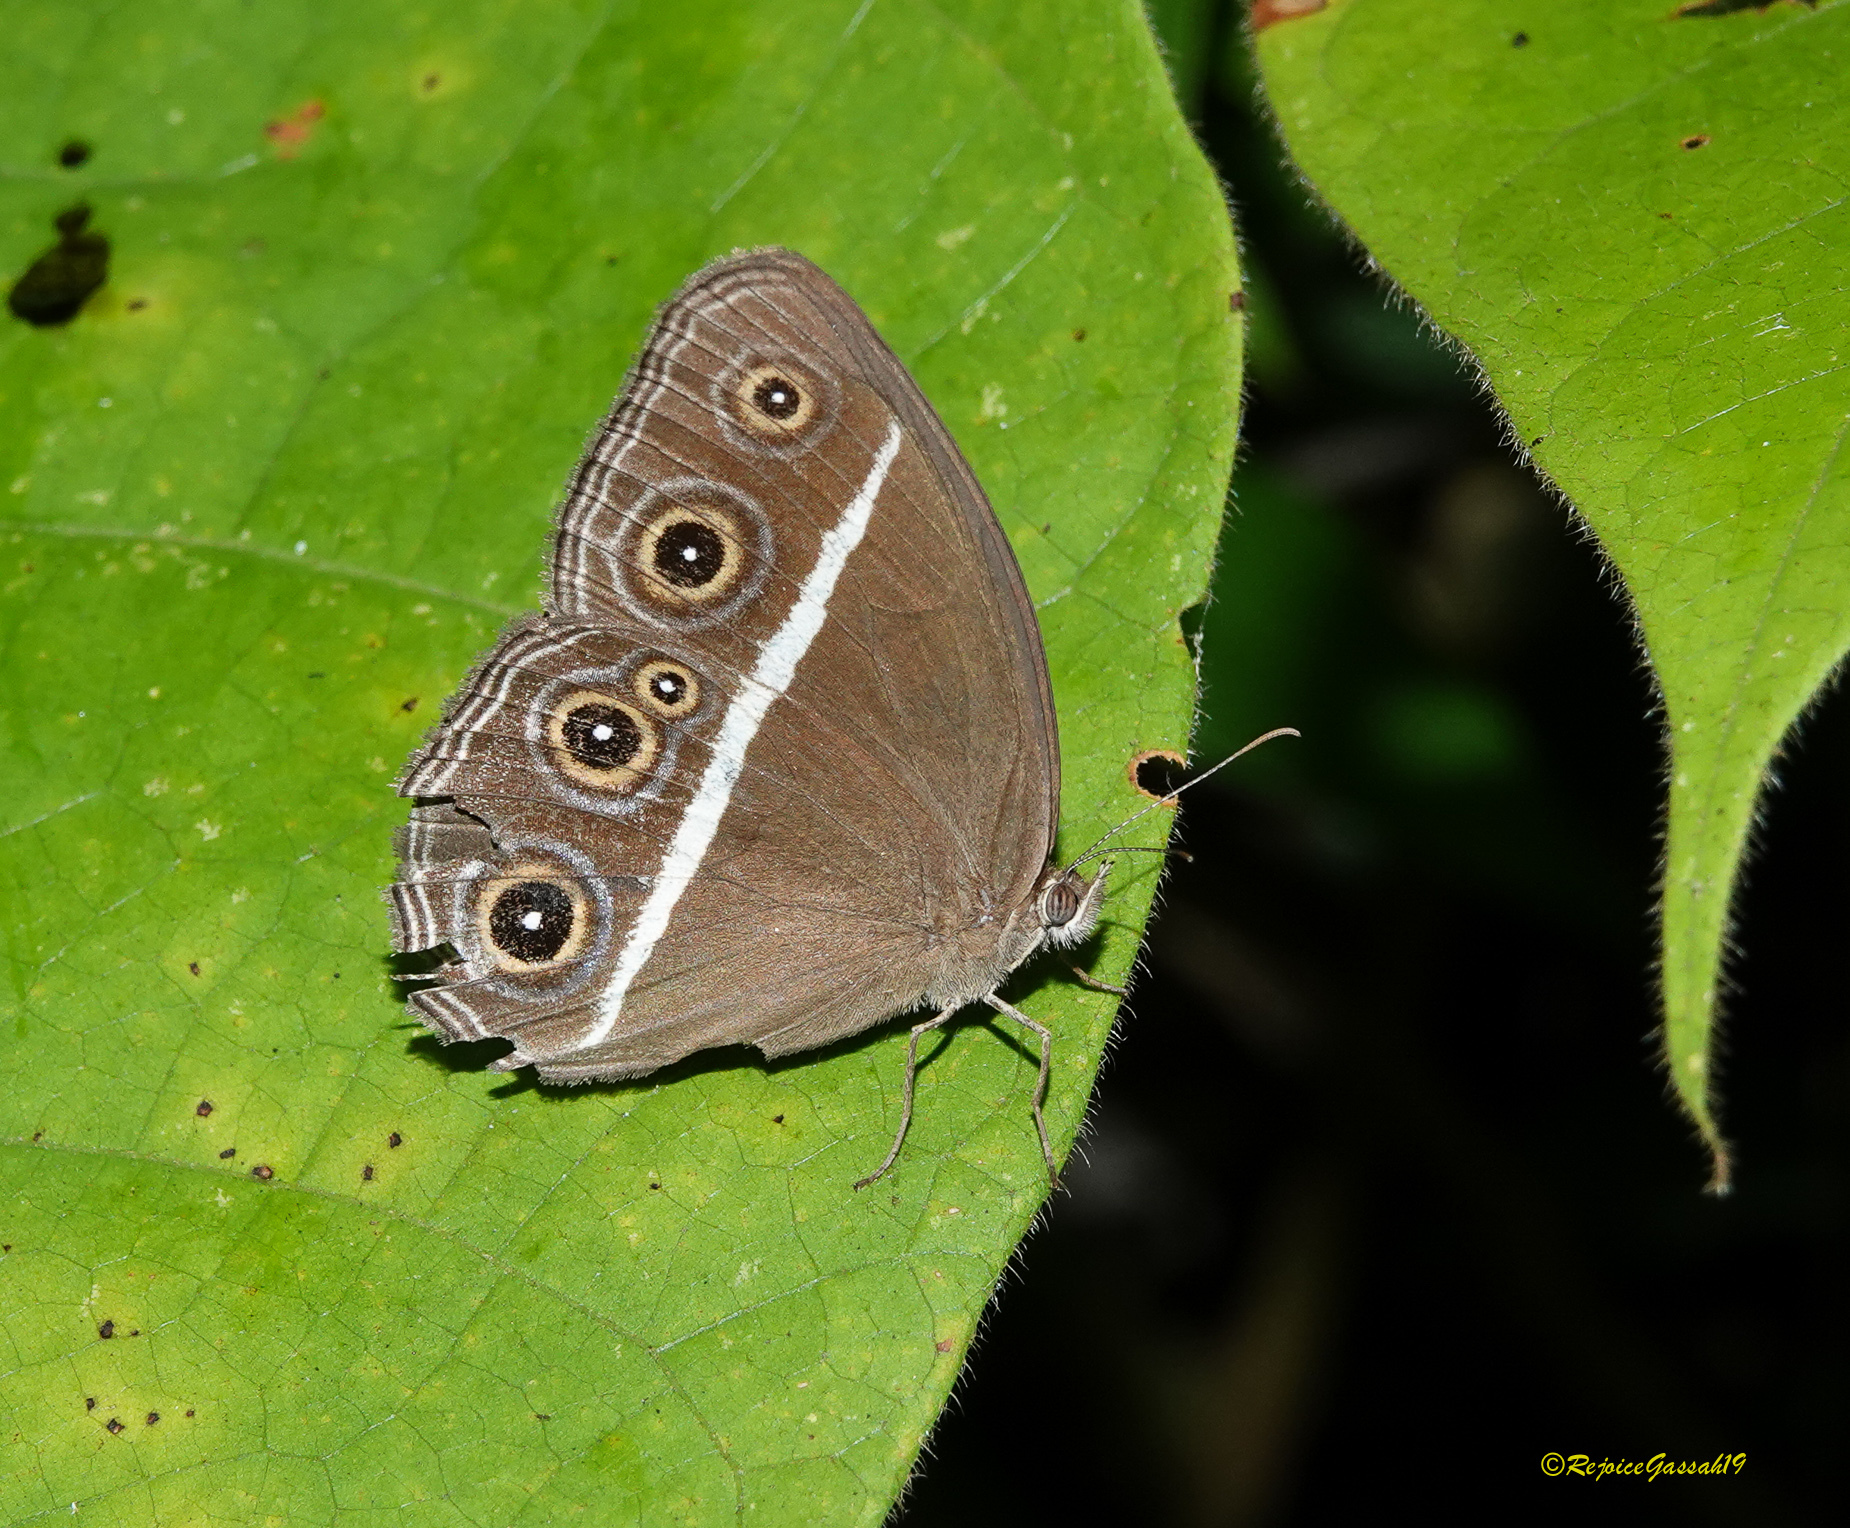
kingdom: Animalia
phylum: Arthropoda
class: Insecta
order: Lepidoptera
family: Nymphalidae
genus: Orsotriaena
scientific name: Orsotriaena medus
